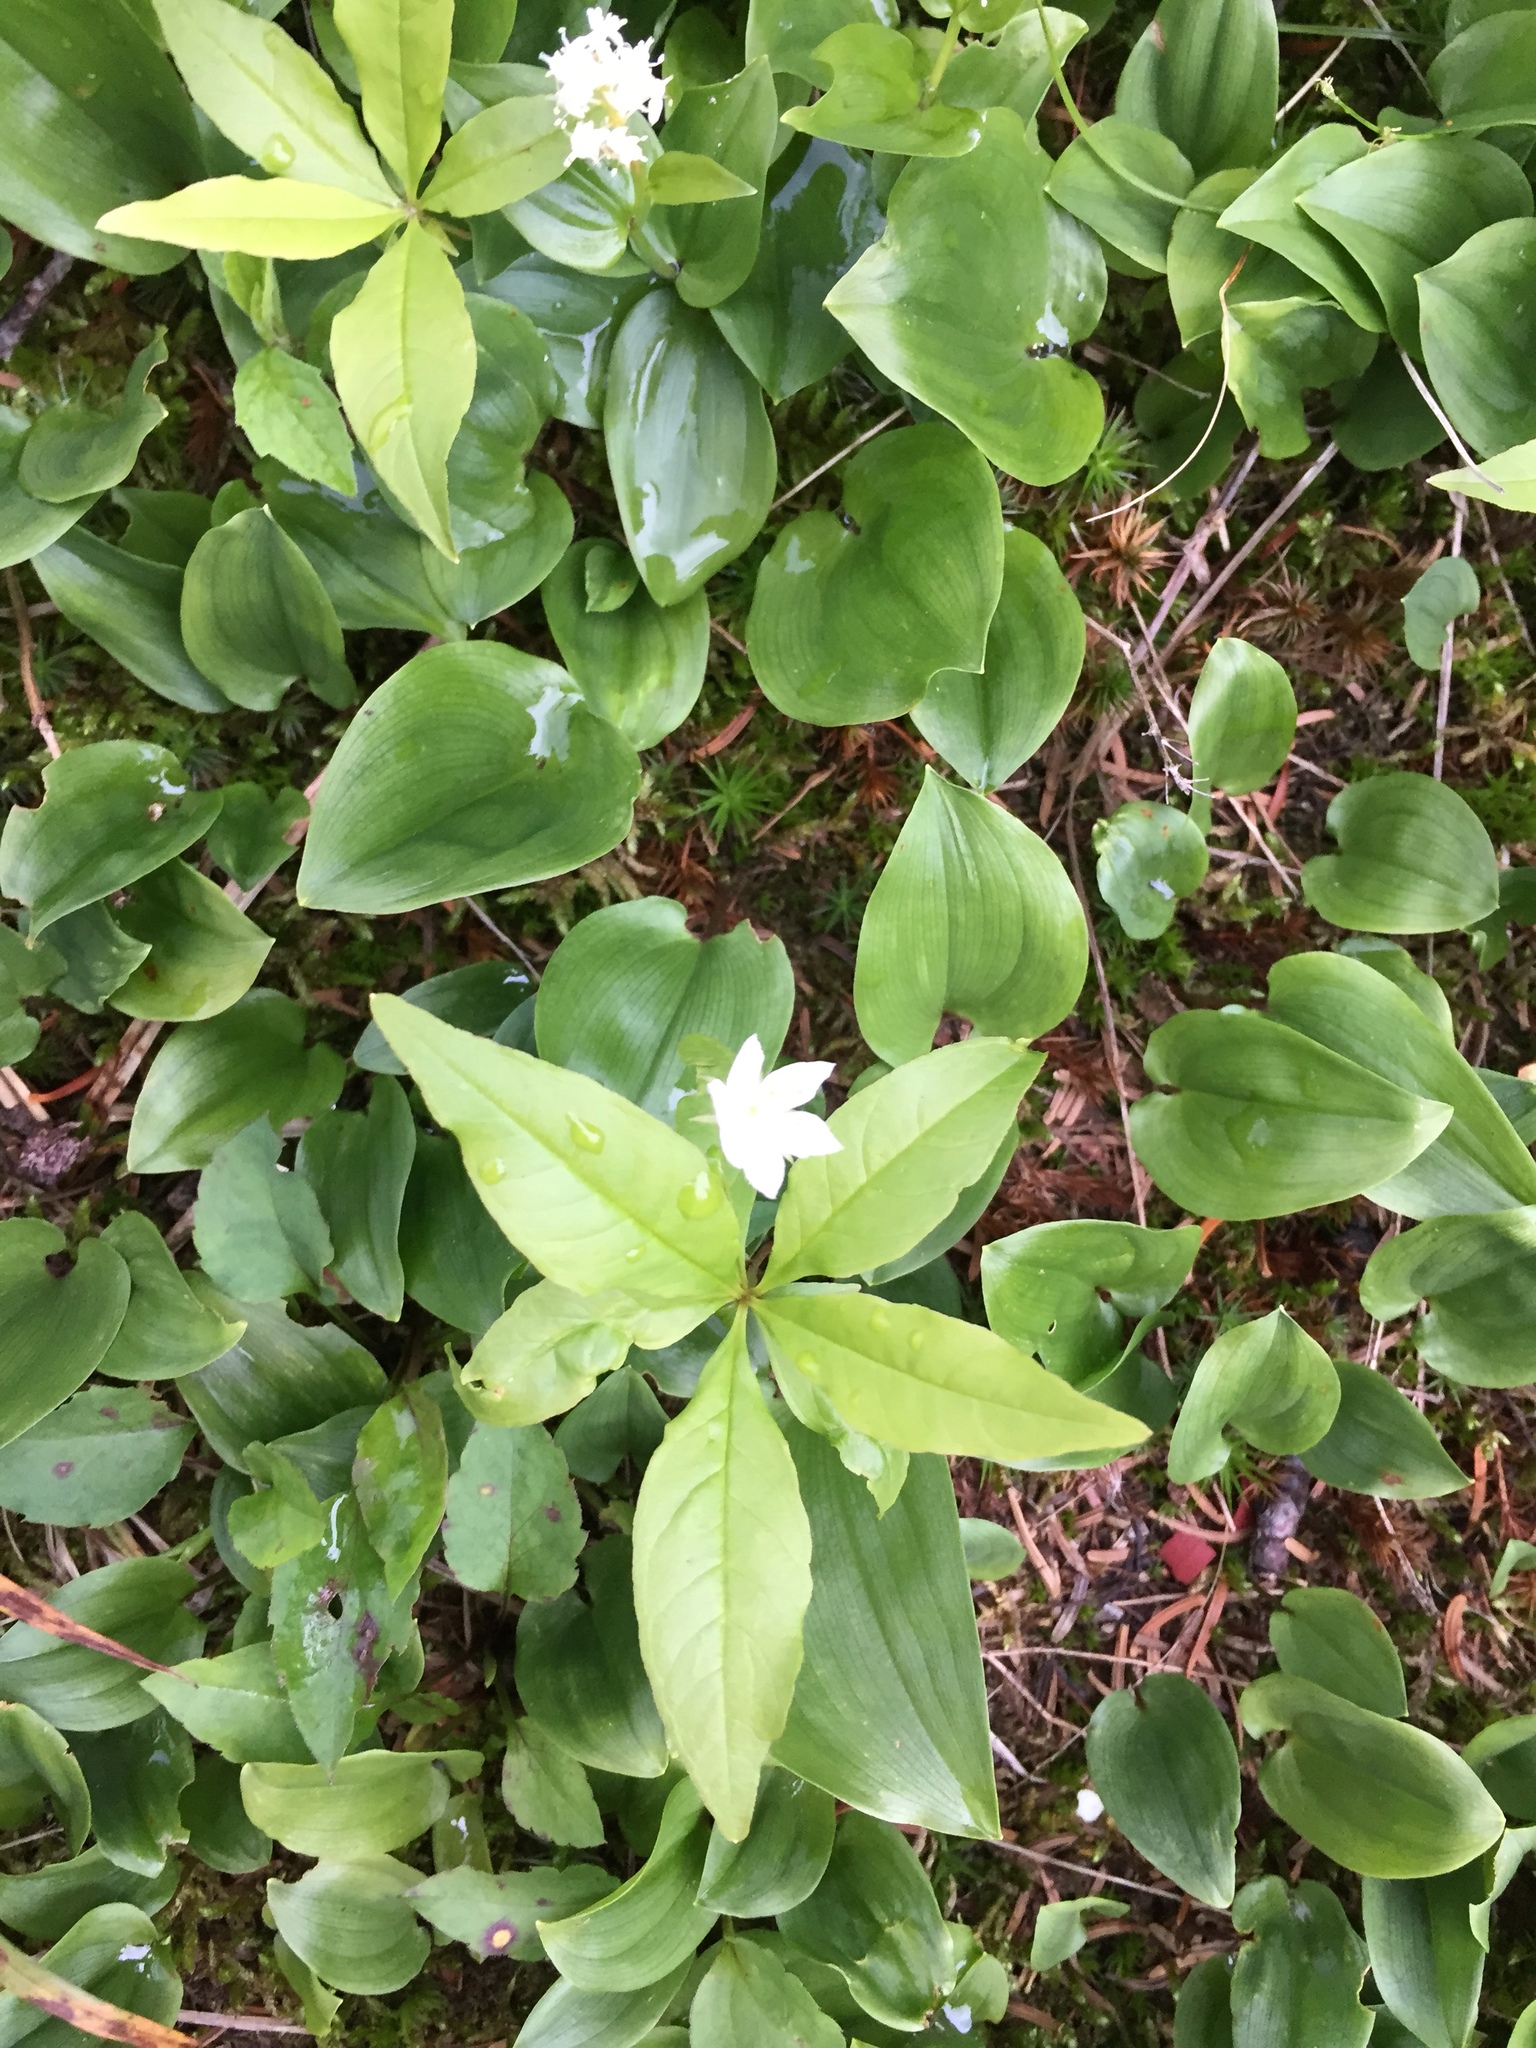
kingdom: Plantae
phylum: Tracheophyta
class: Magnoliopsida
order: Ericales
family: Primulaceae
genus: Lysimachia
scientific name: Lysimachia borealis
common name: American starflower
